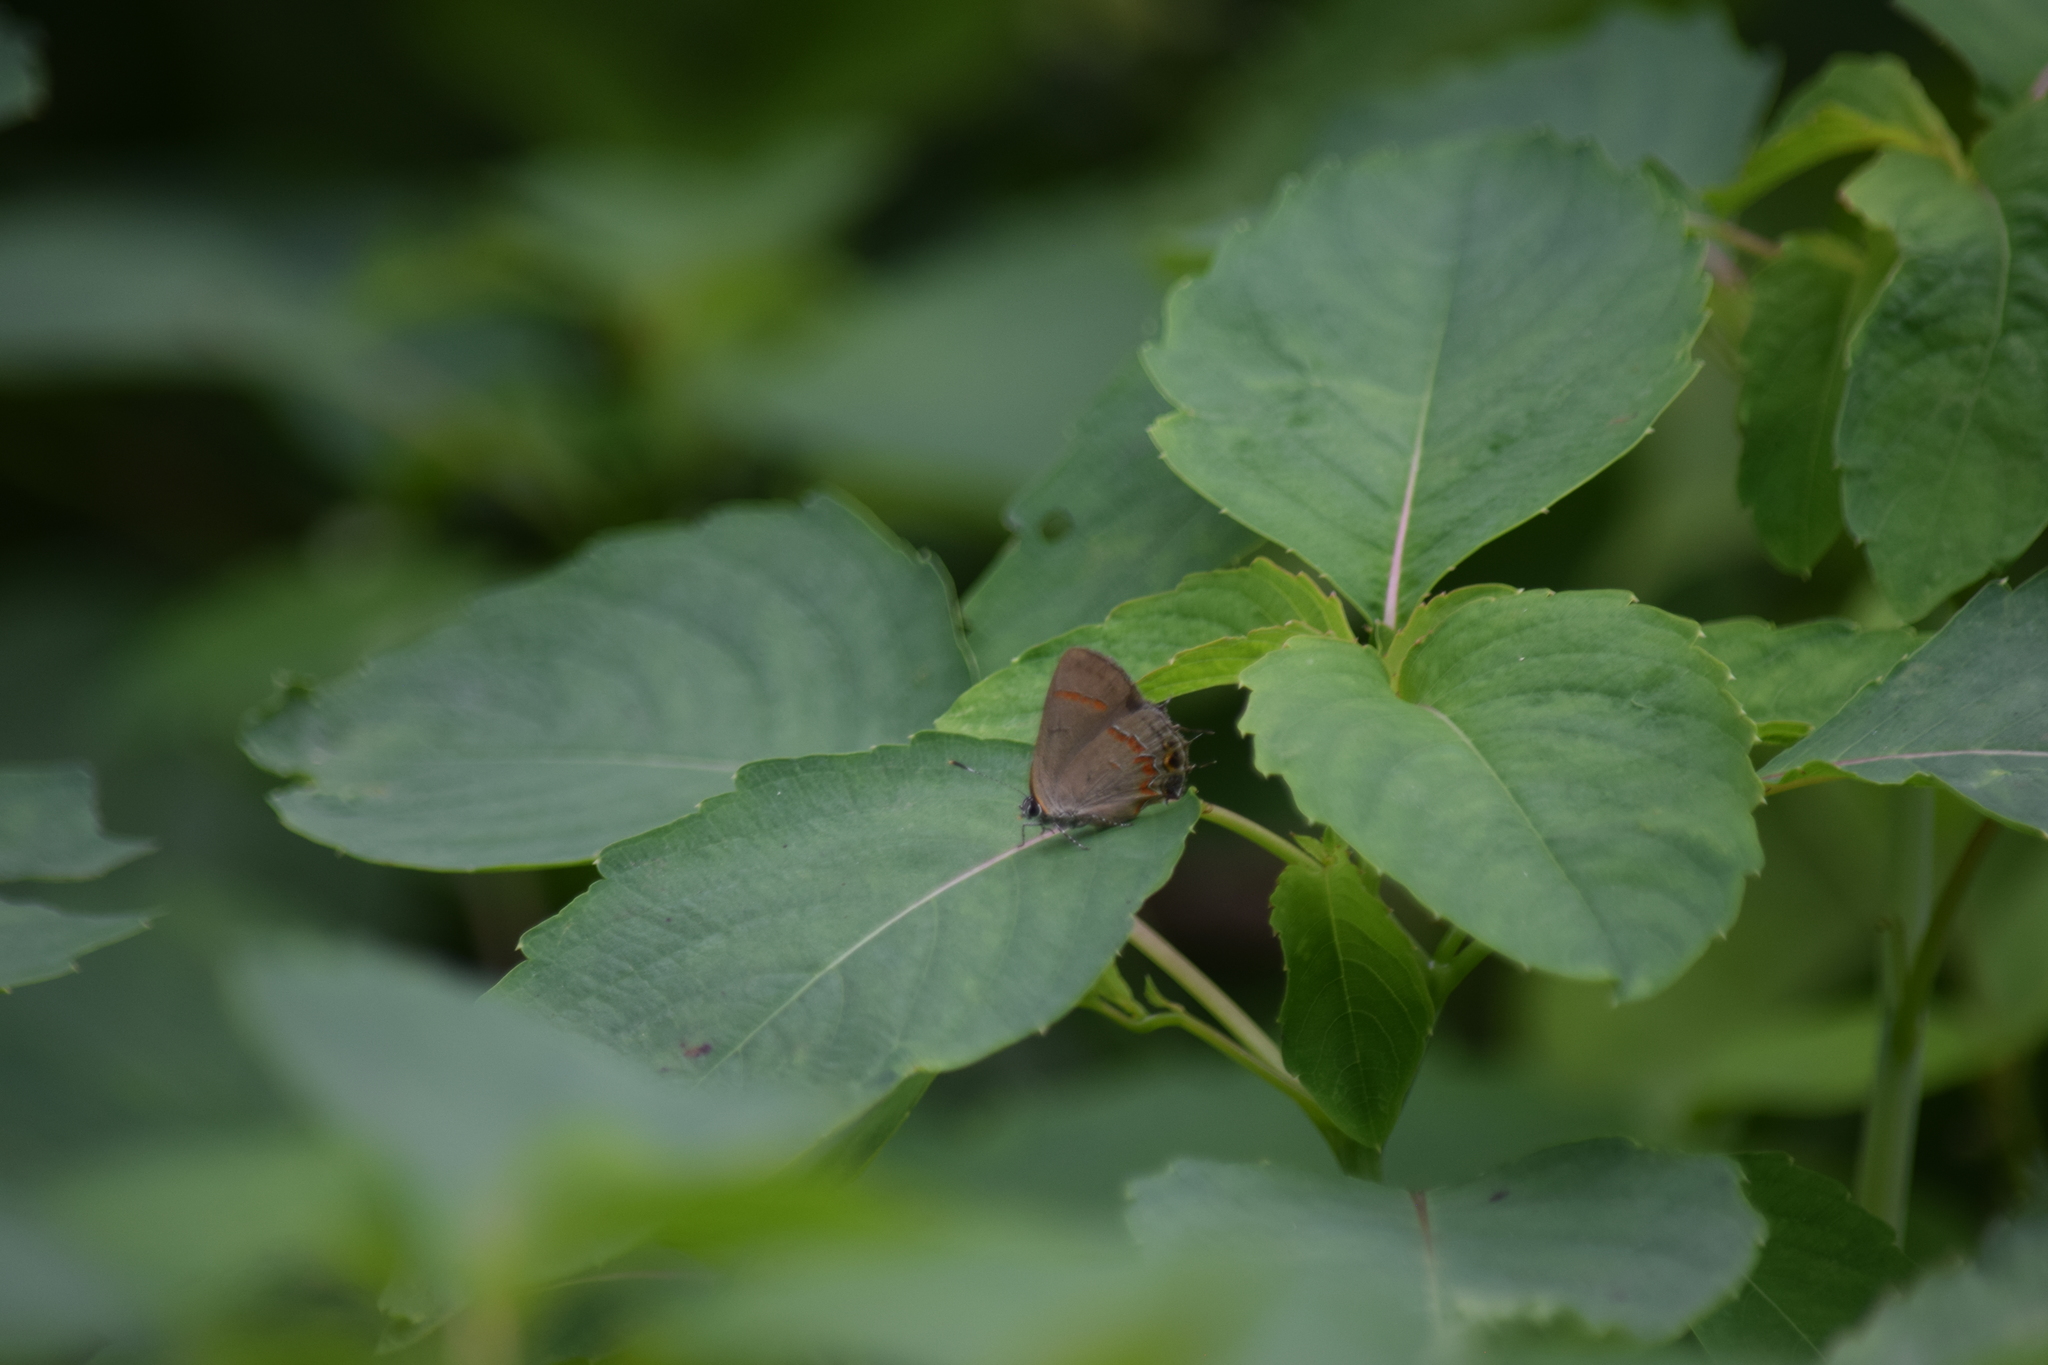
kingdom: Animalia
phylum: Arthropoda
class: Insecta
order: Lepidoptera
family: Lycaenidae
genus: Calycopis
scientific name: Calycopis cecrops
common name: Red-banded hairstreak
